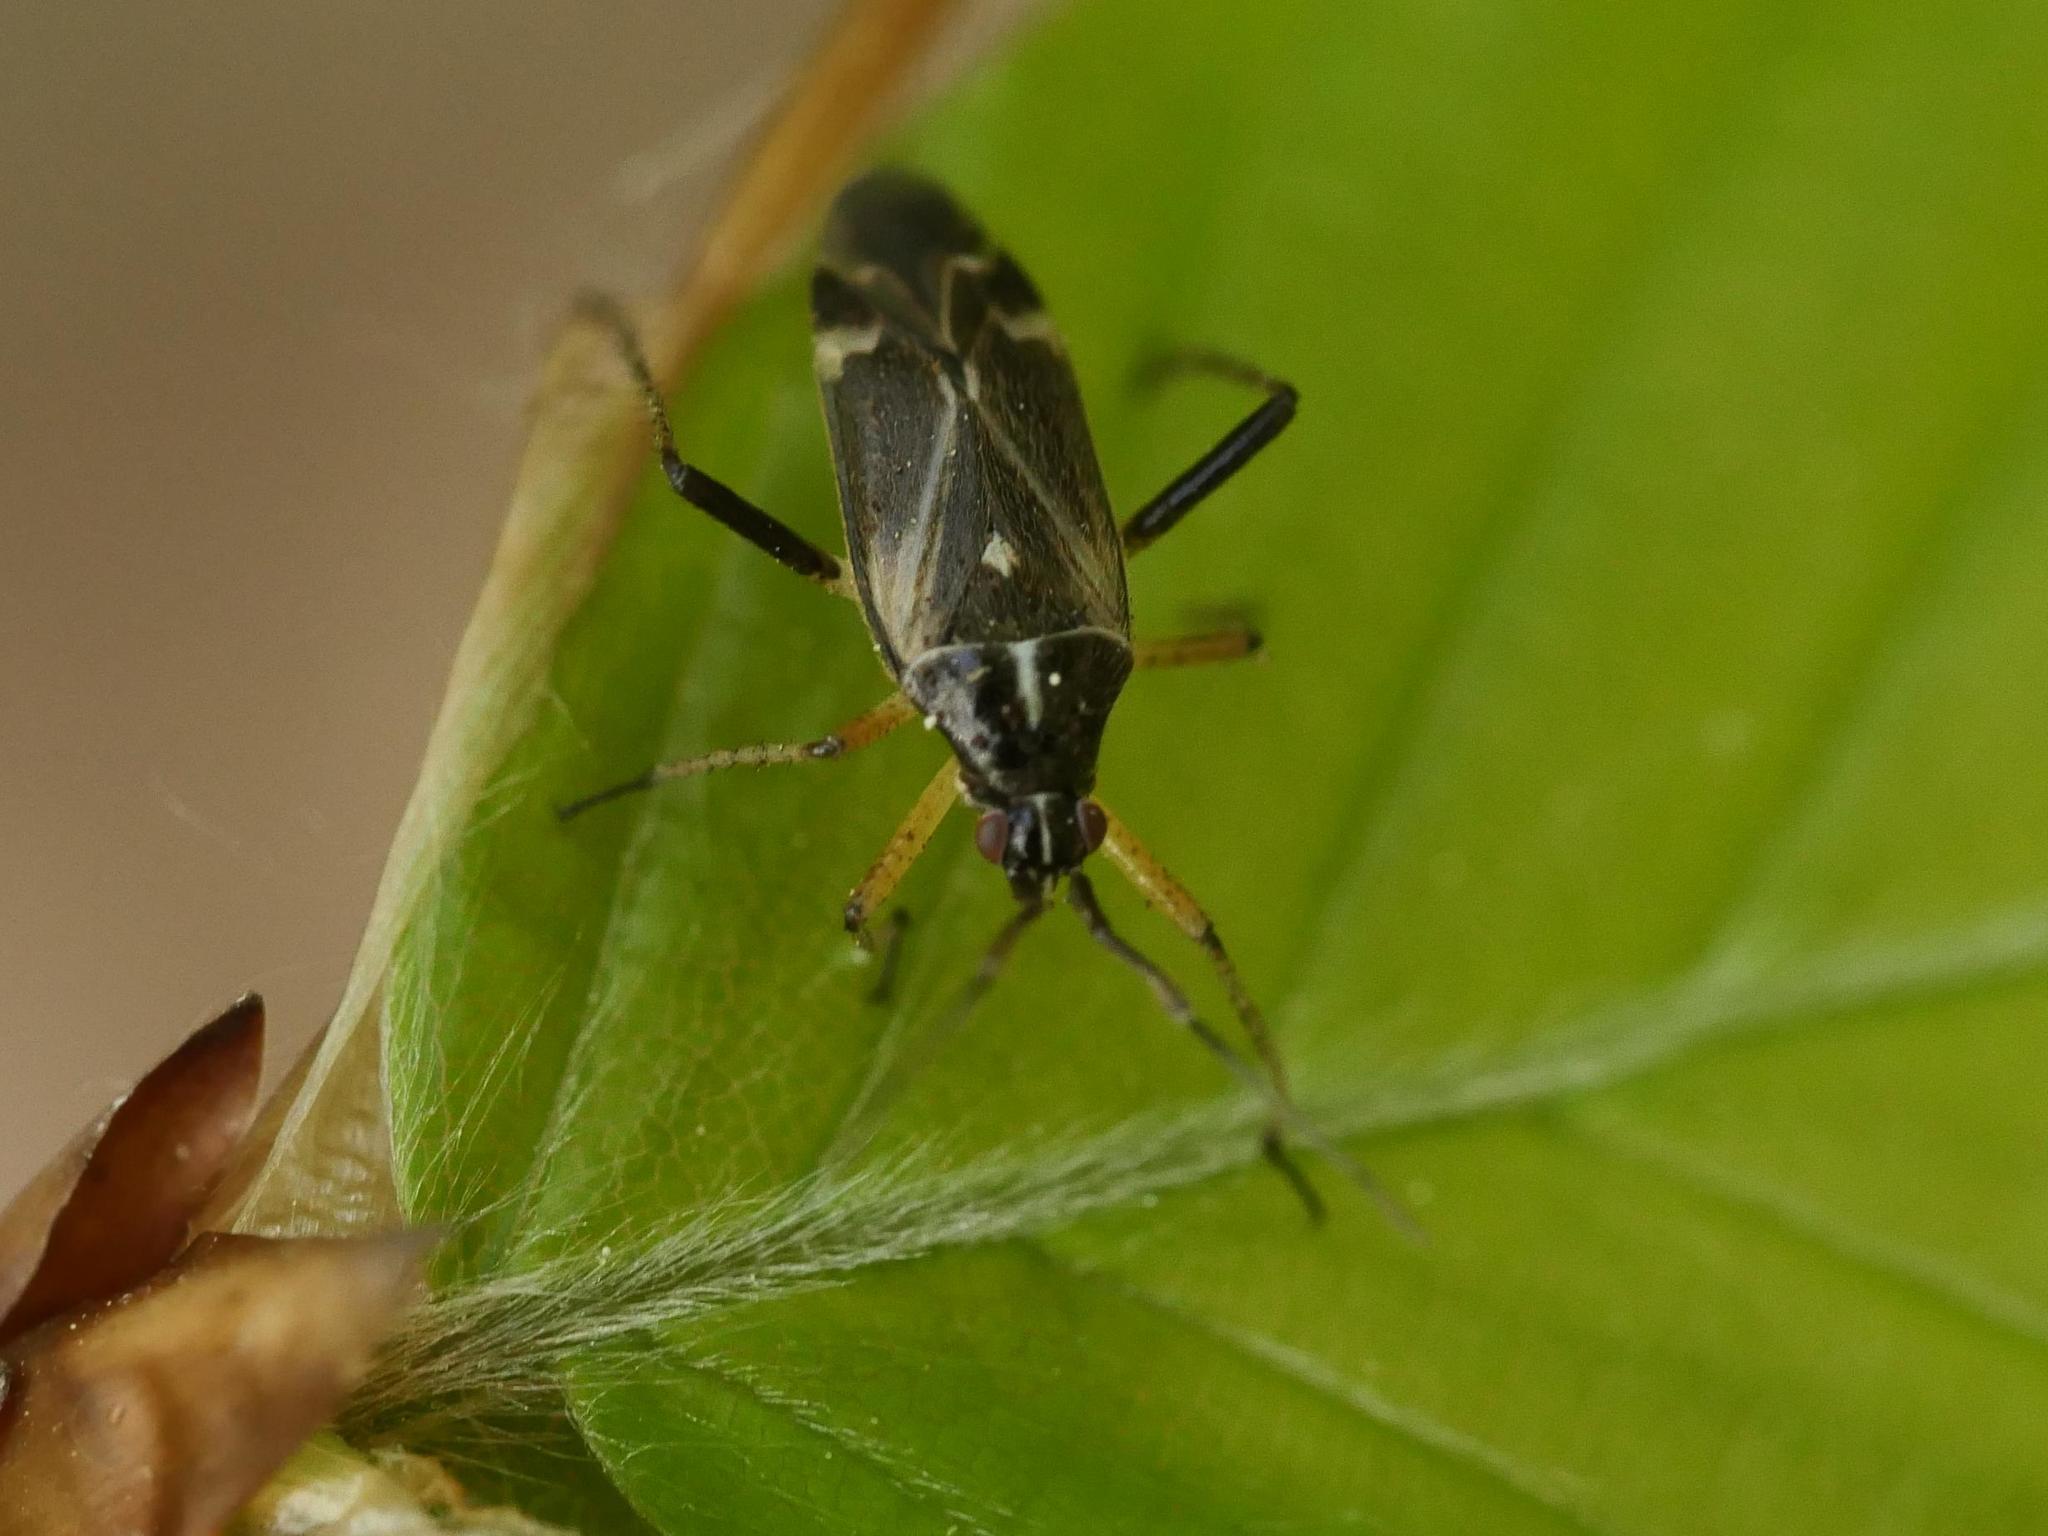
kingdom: Animalia
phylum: Arthropoda
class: Insecta
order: Hemiptera
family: Miridae
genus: Harpocera
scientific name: Harpocera thoracica
